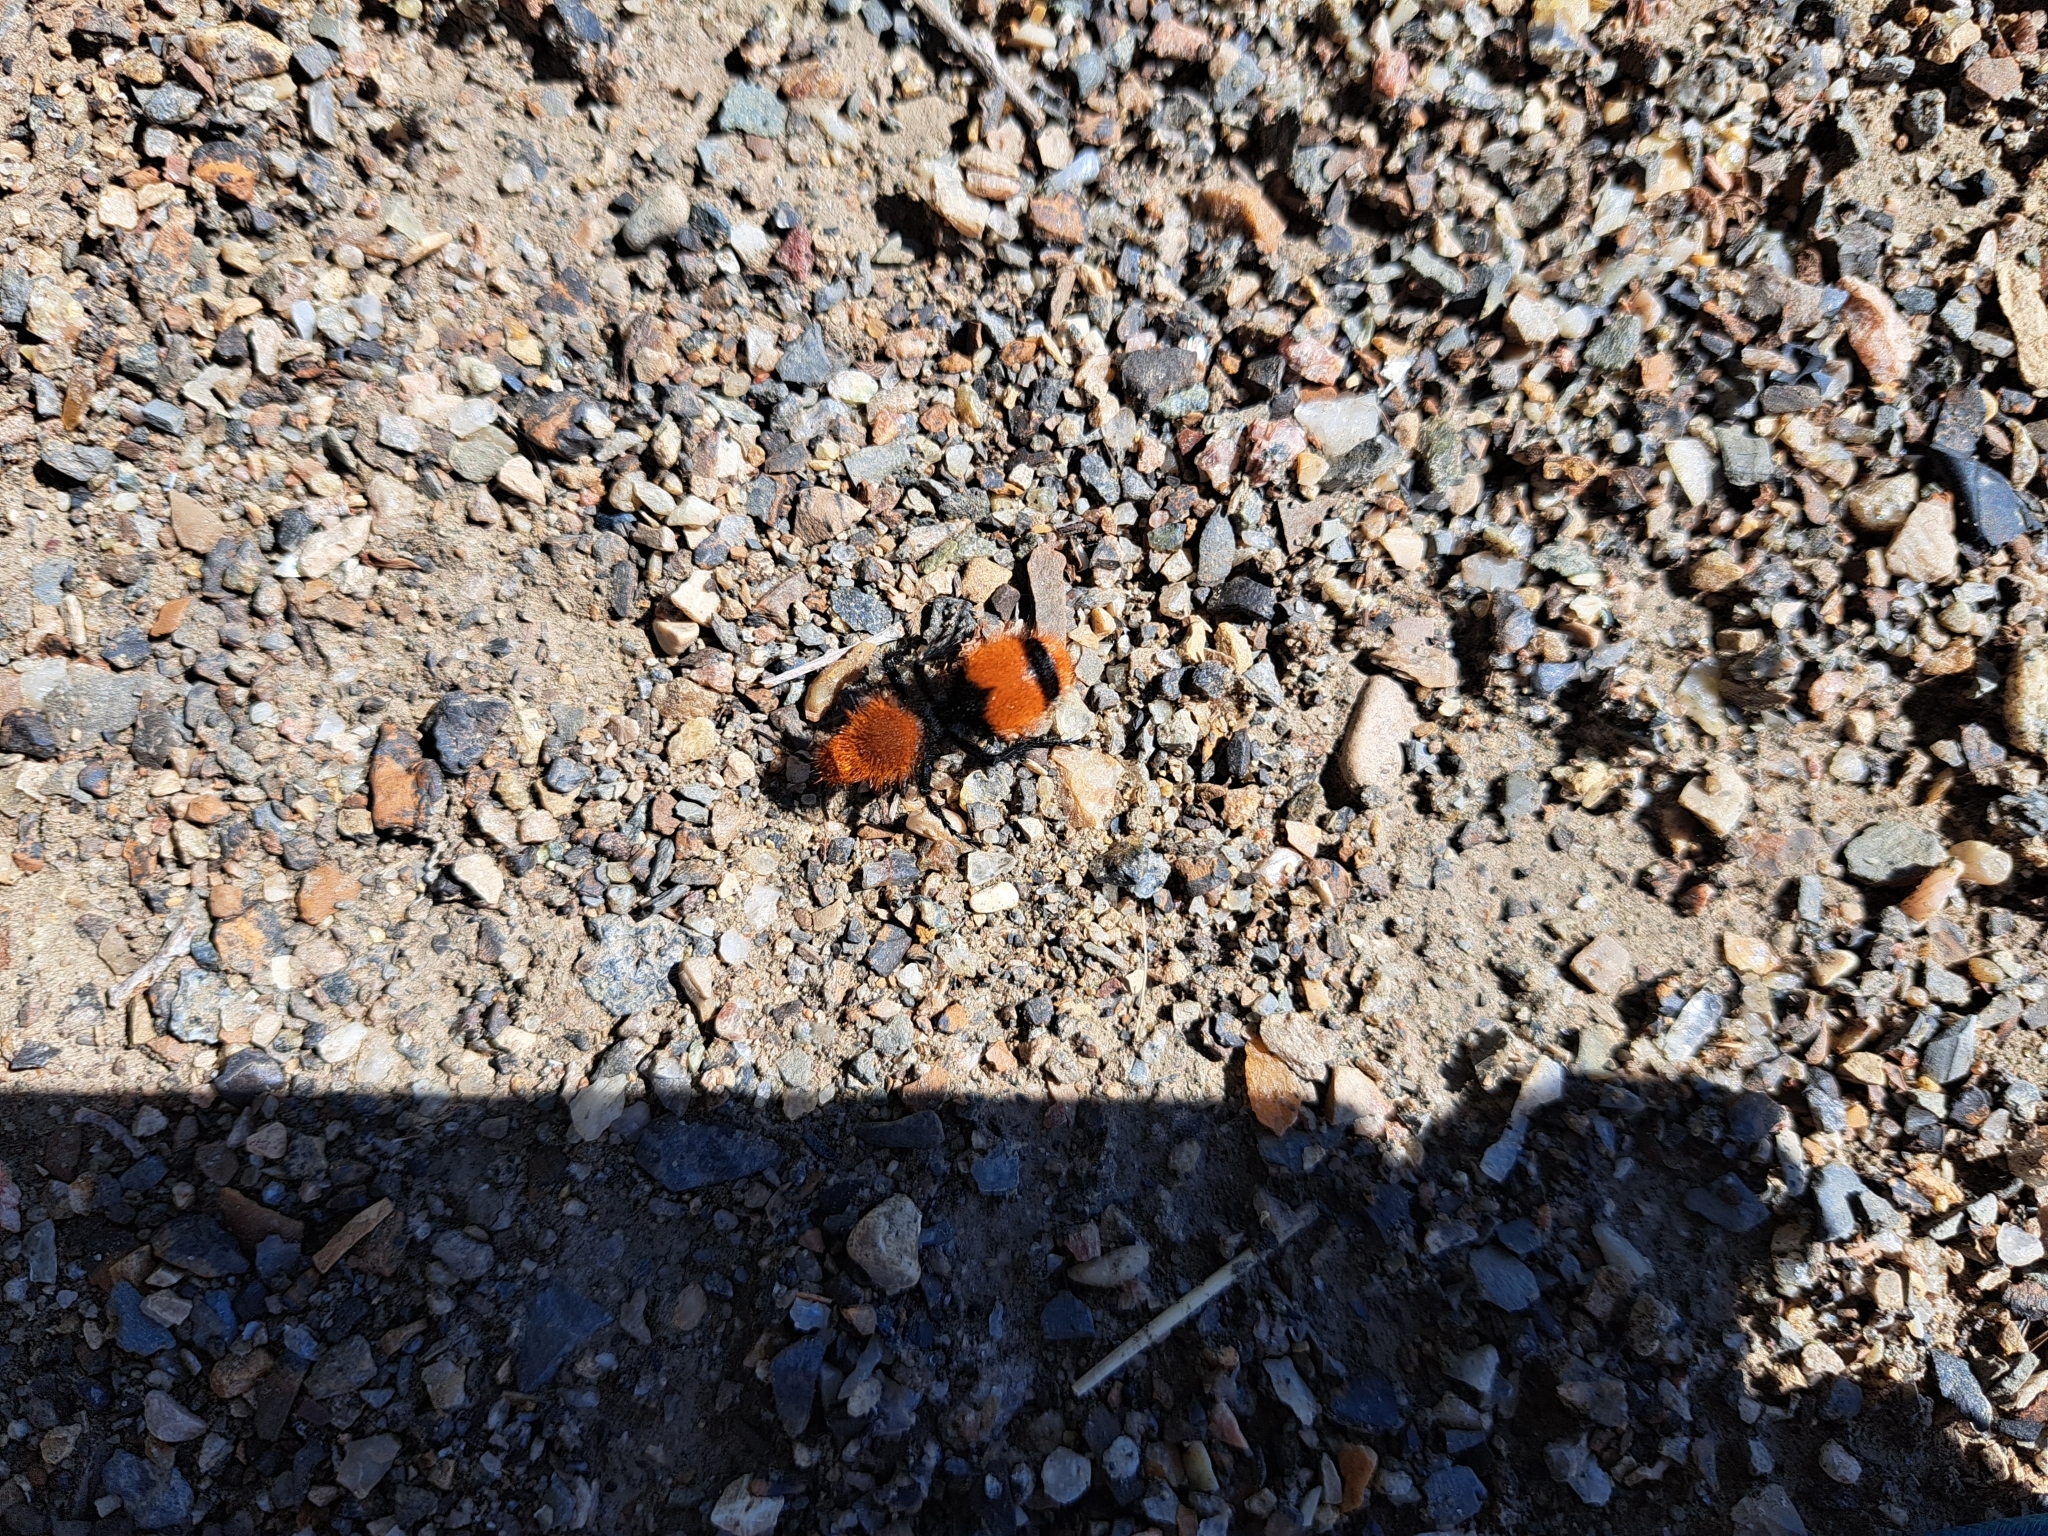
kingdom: Animalia
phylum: Arthropoda
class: Insecta
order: Hymenoptera
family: Mutillidae
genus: Dasymutilla
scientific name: Dasymutilla occidentalis
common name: Common eastern velvet ant
